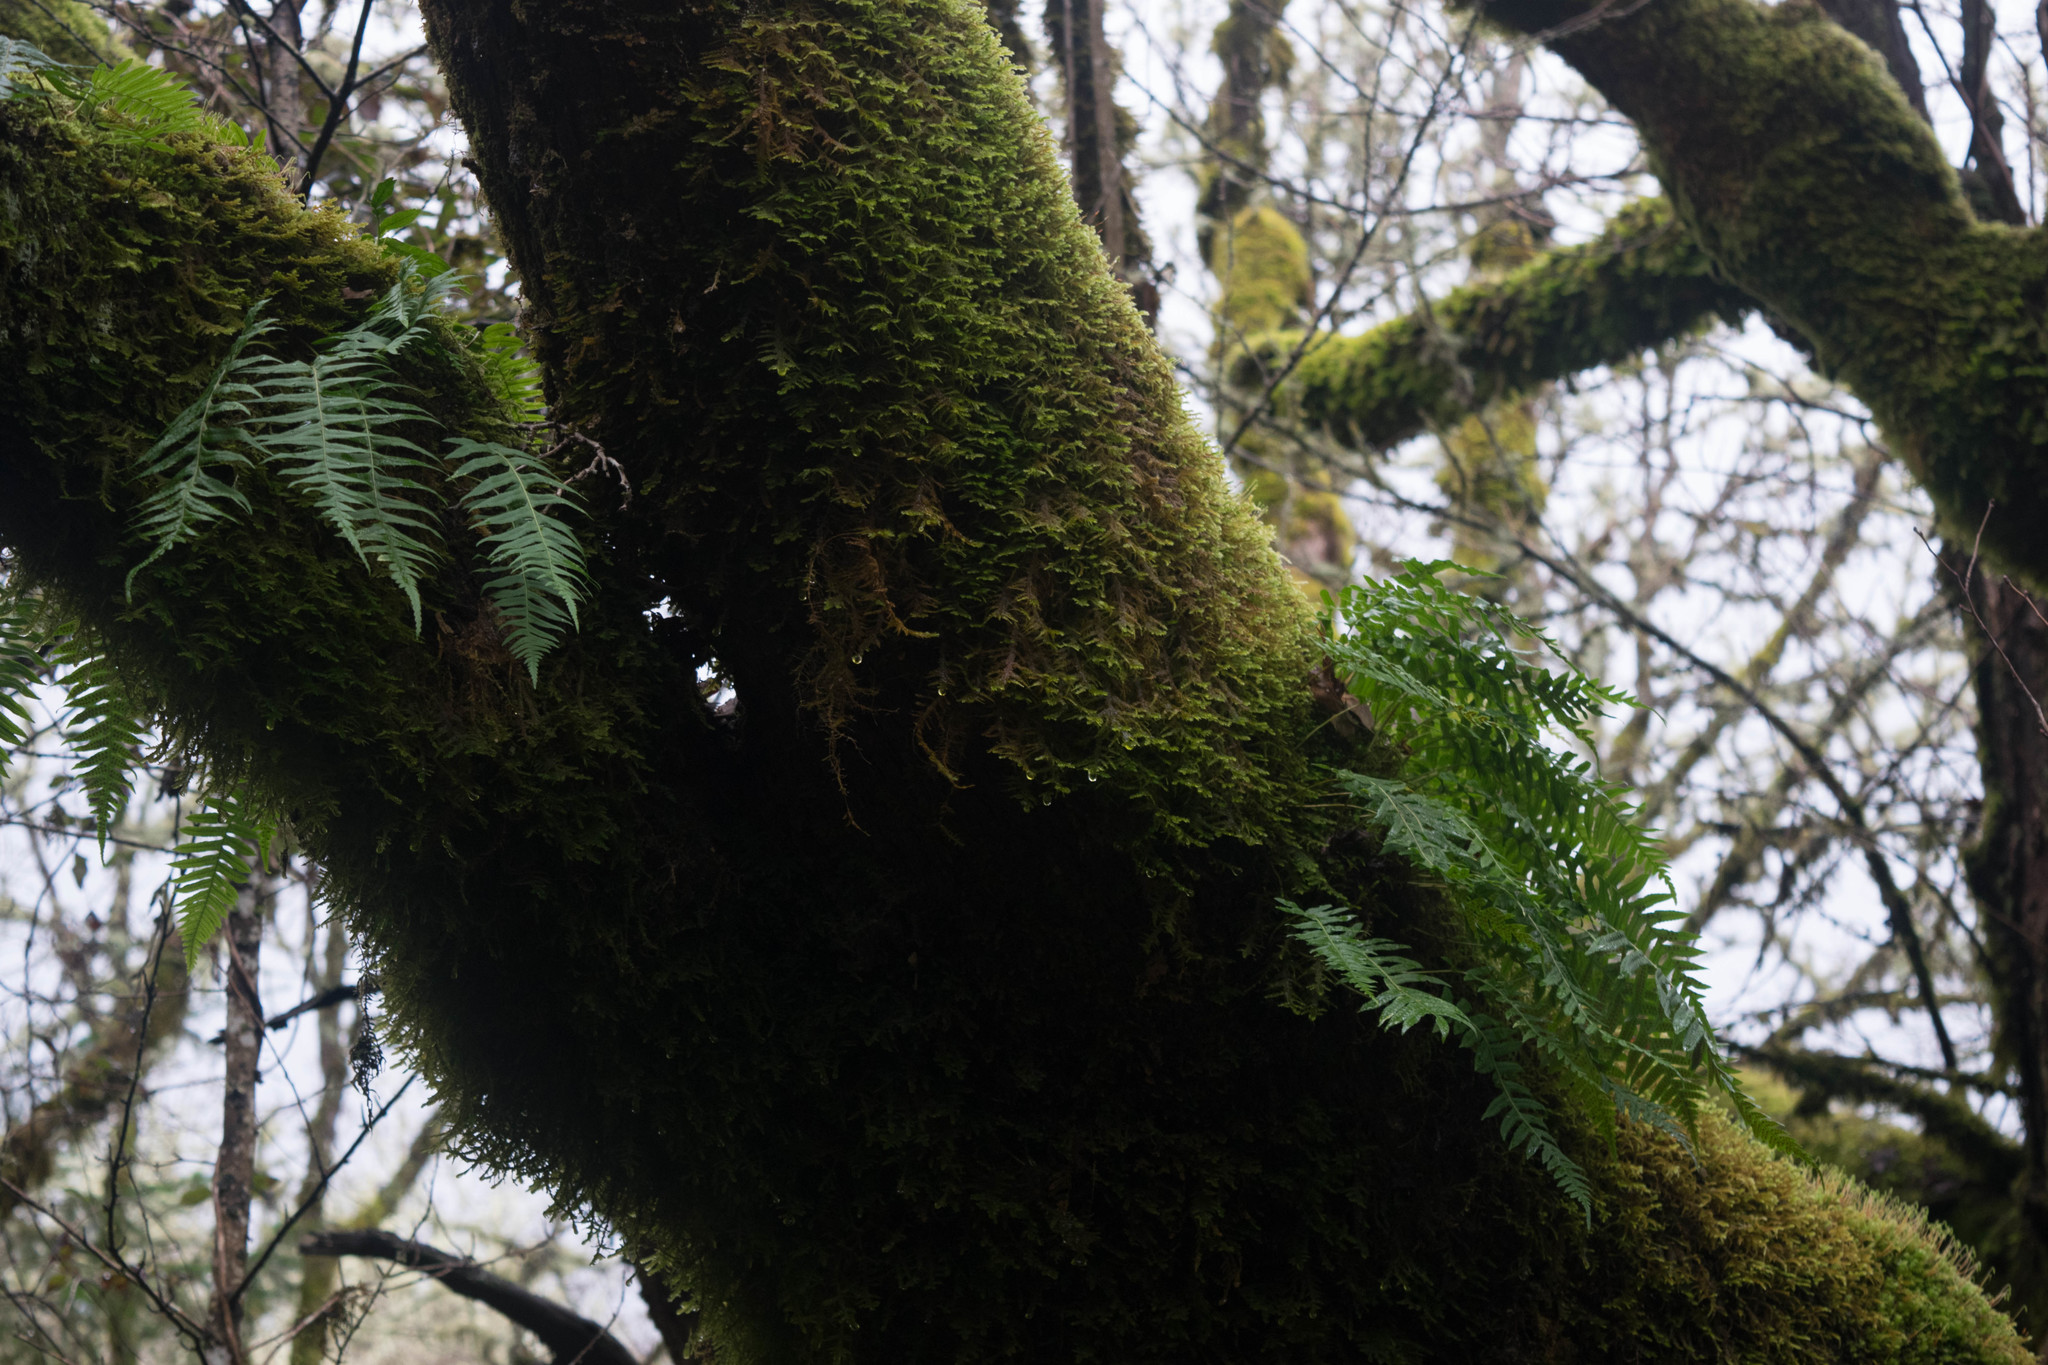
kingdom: Plantae
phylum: Tracheophyta
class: Polypodiopsida
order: Polypodiales
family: Polypodiaceae
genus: Polypodium
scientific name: Polypodium glycyrrhiza
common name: Licorice fern
